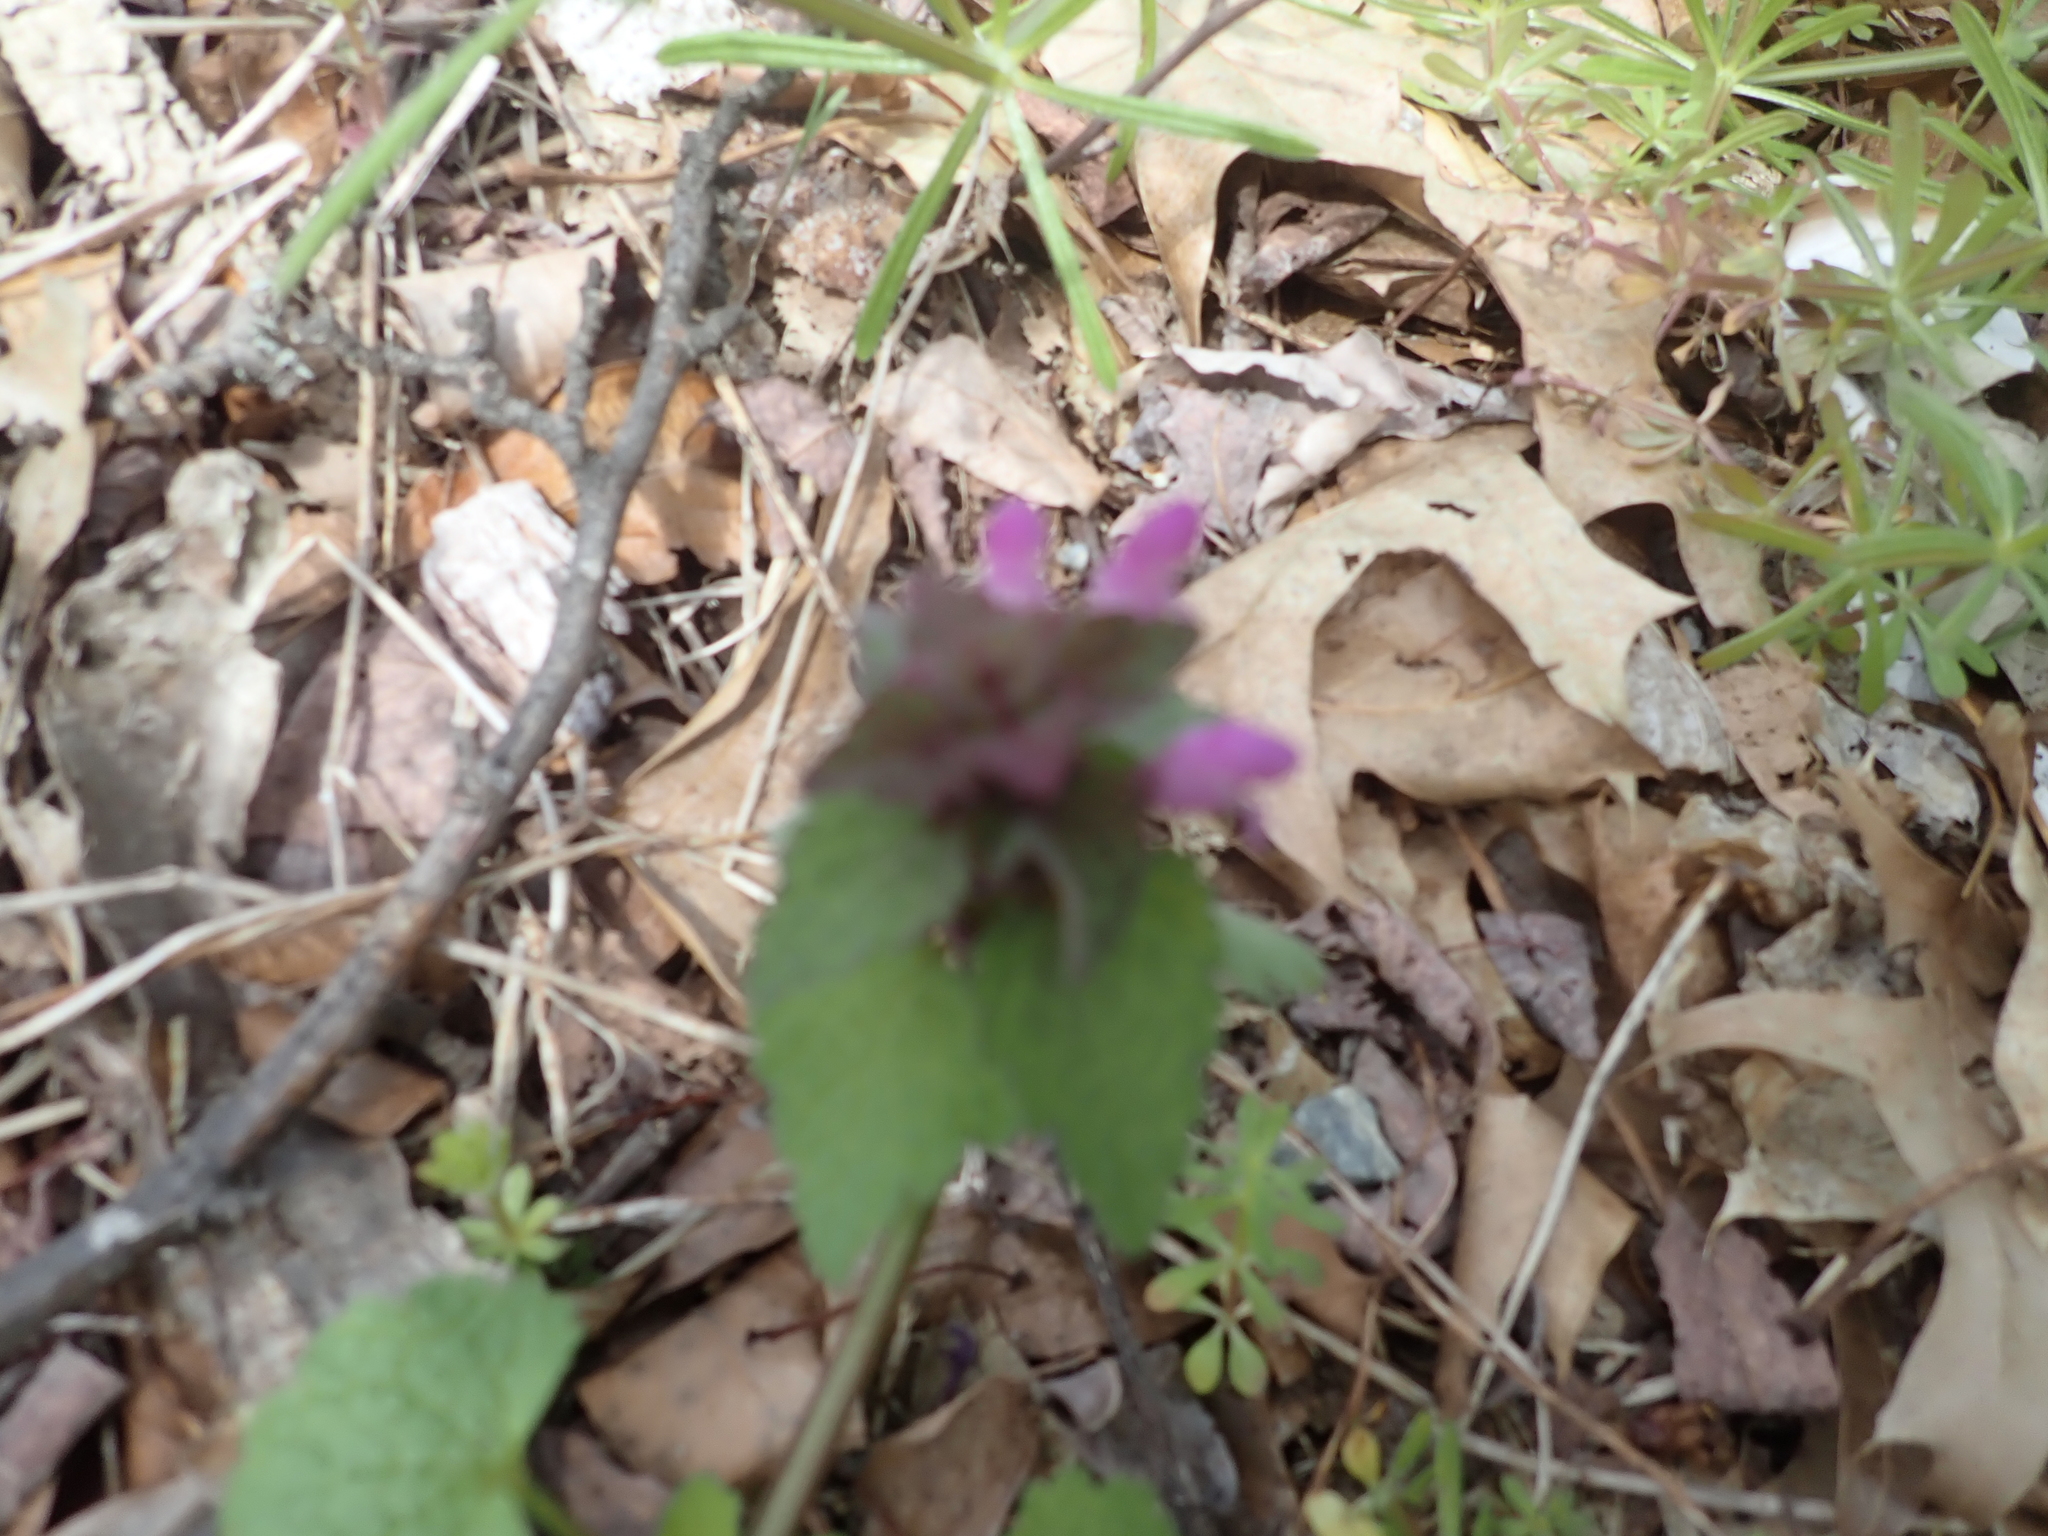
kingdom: Plantae
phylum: Tracheophyta
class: Magnoliopsida
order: Lamiales
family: Lamiaceae
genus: Lamium
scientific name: Lamium purpureum
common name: Red dead-nettle
